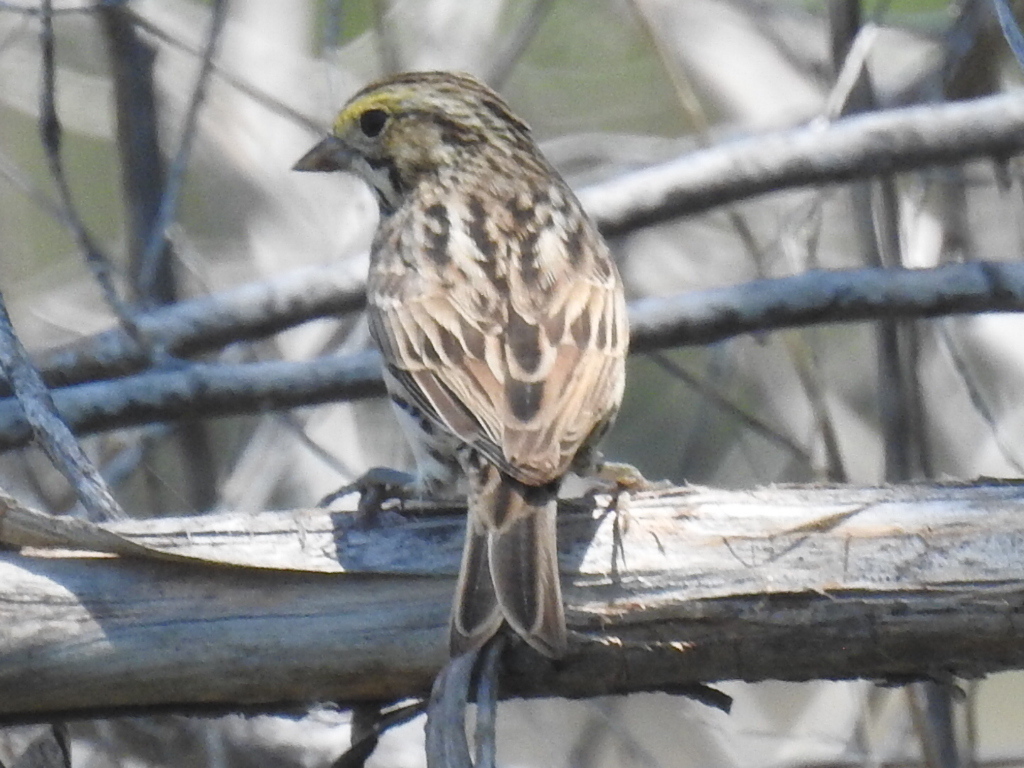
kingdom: Animalia
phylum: Chordata
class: Aves
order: Passeriformes
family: Passerellidae
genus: Passerculus
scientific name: Passerculus sandwichensis
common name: Savannah sparrow
